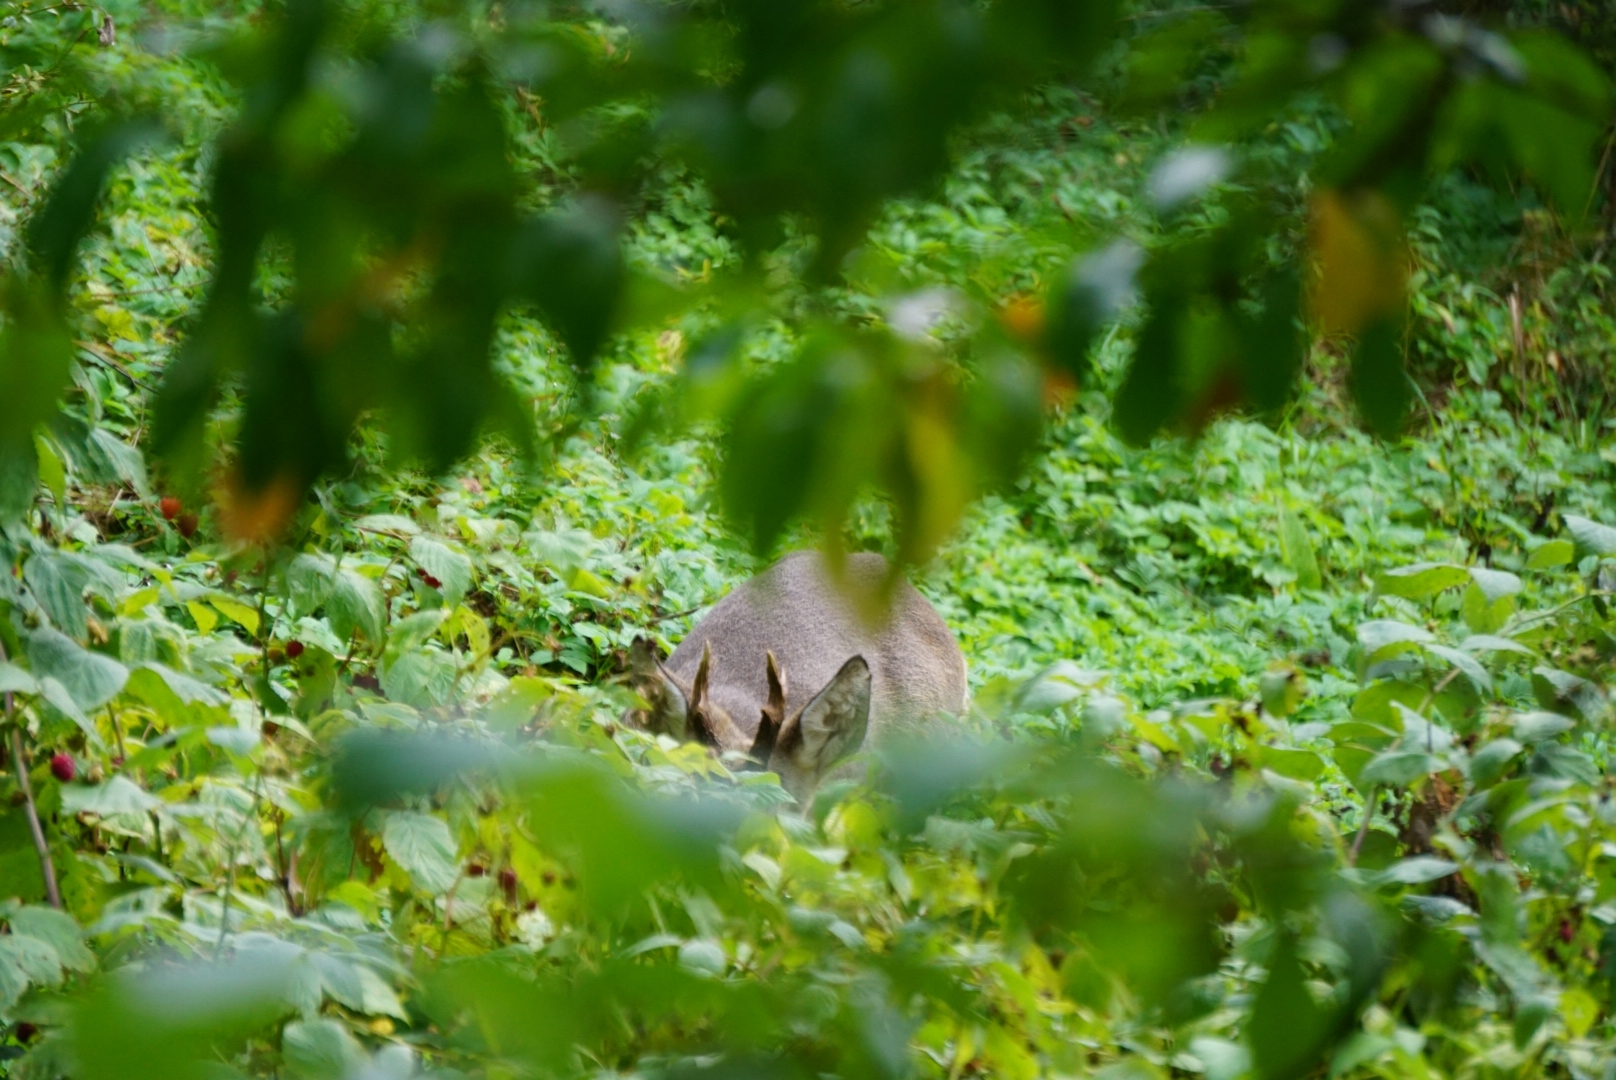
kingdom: Animalia
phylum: Chordata
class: Mammalia
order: Artiodactyla
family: Cervidae
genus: Capreolus
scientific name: Capreolus capreolus
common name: Western roe deer
